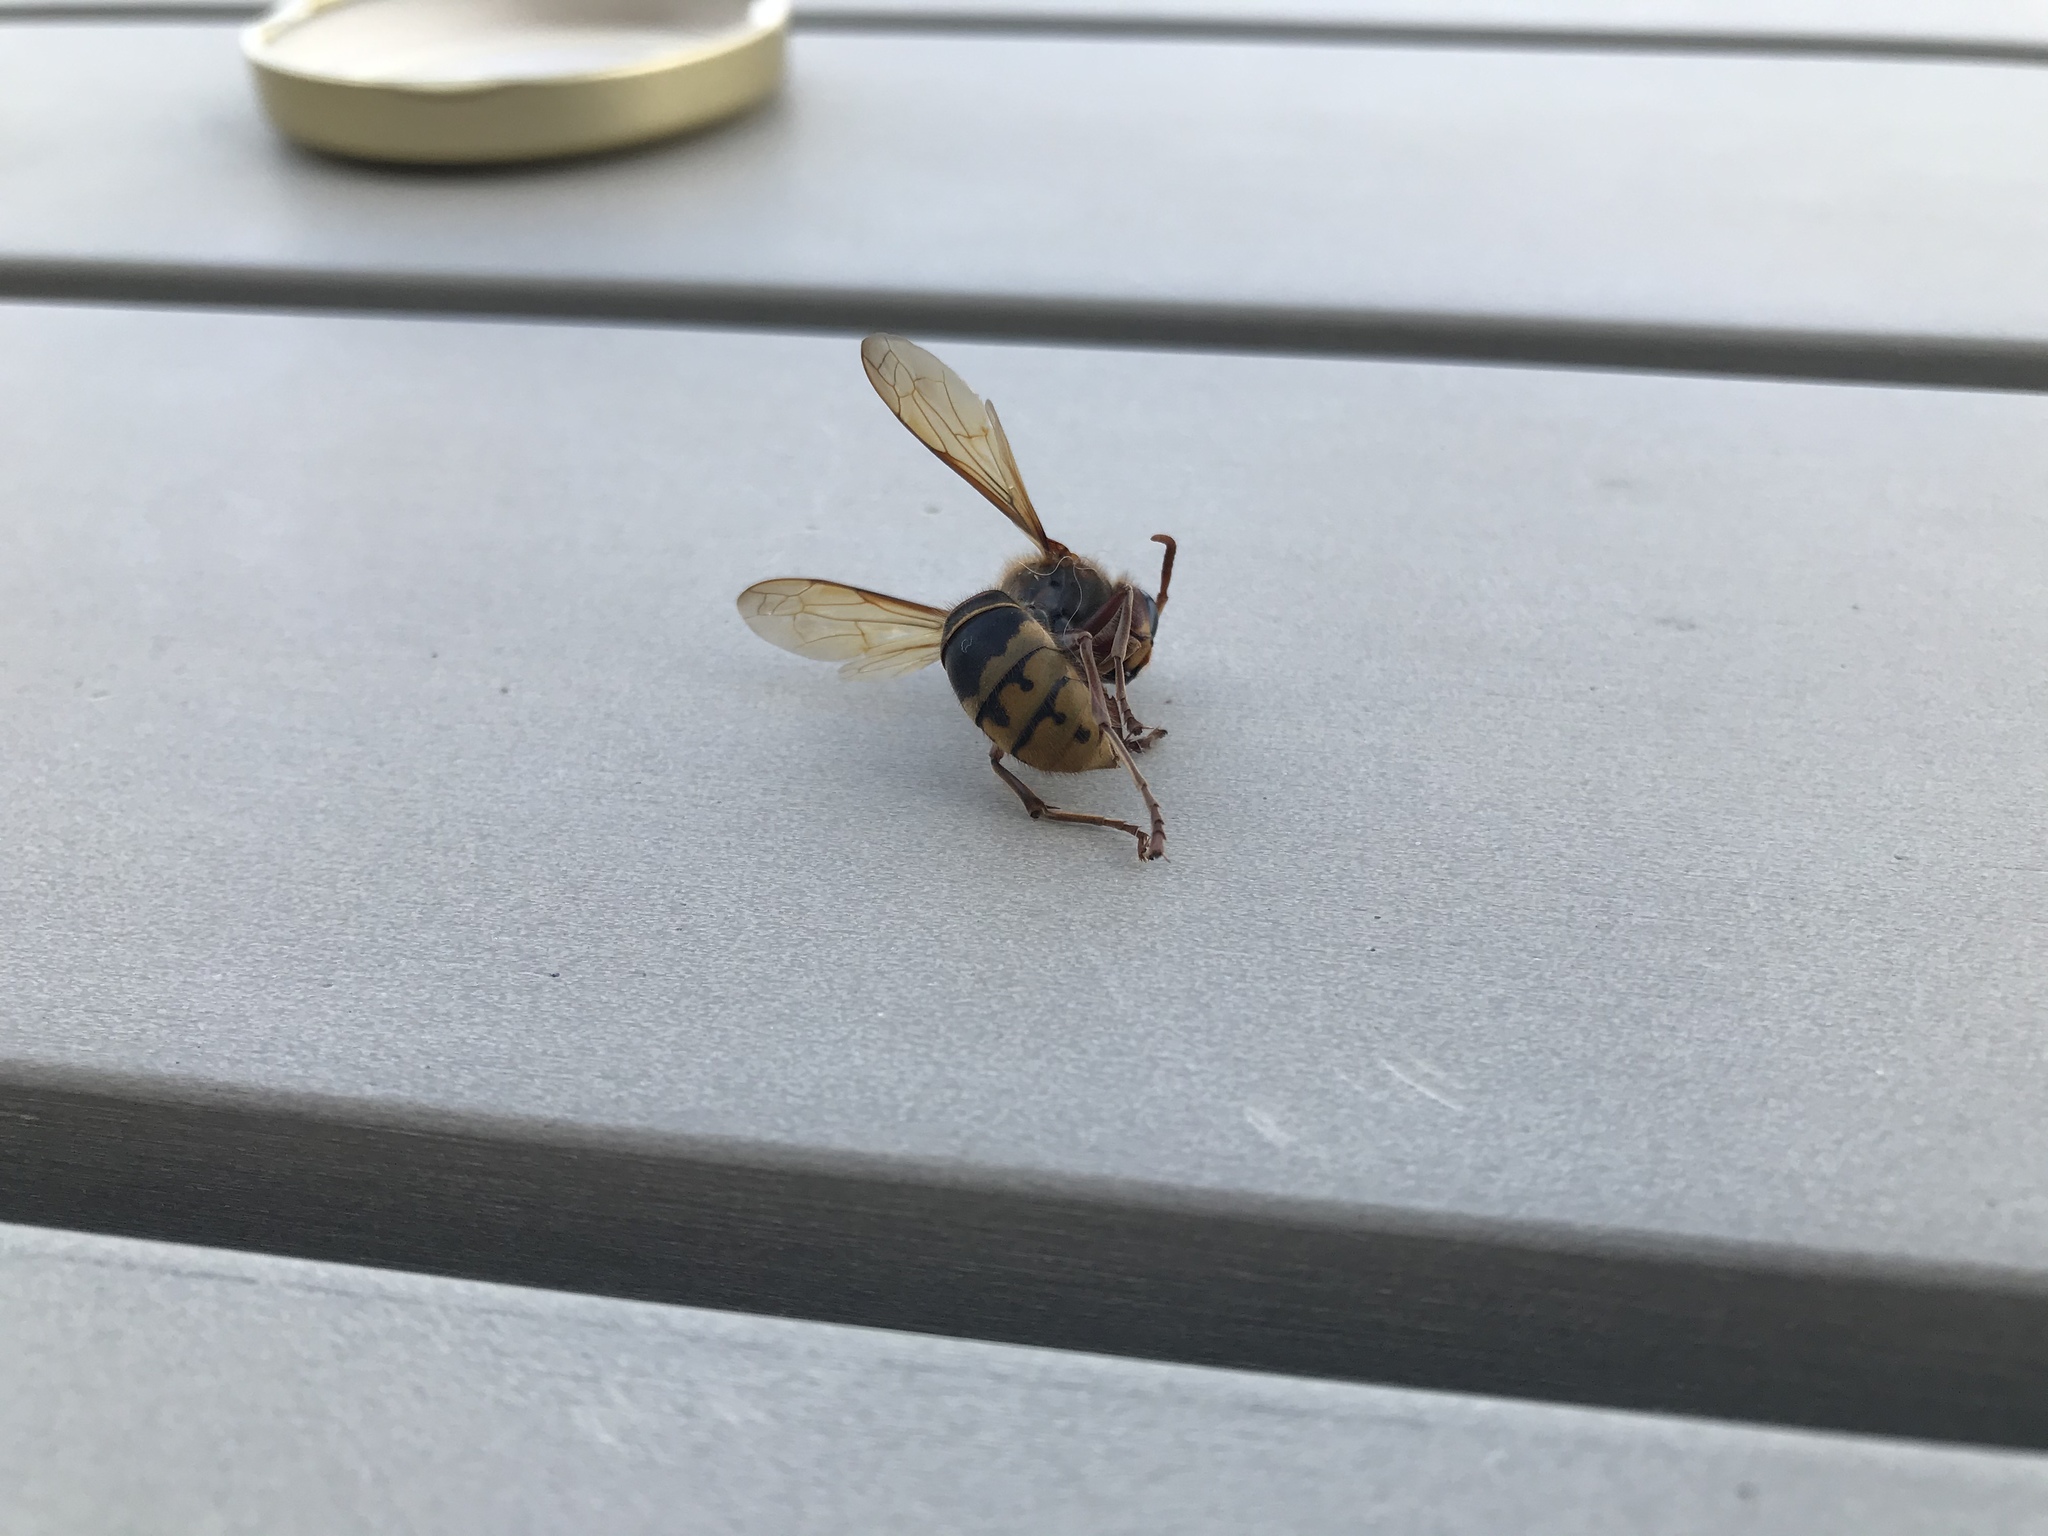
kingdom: Animalia
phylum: Arthropoda
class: Insecta
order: Hymenoptera
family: Vespidae
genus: Vespa
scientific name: Vespa crabro
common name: Hornet
